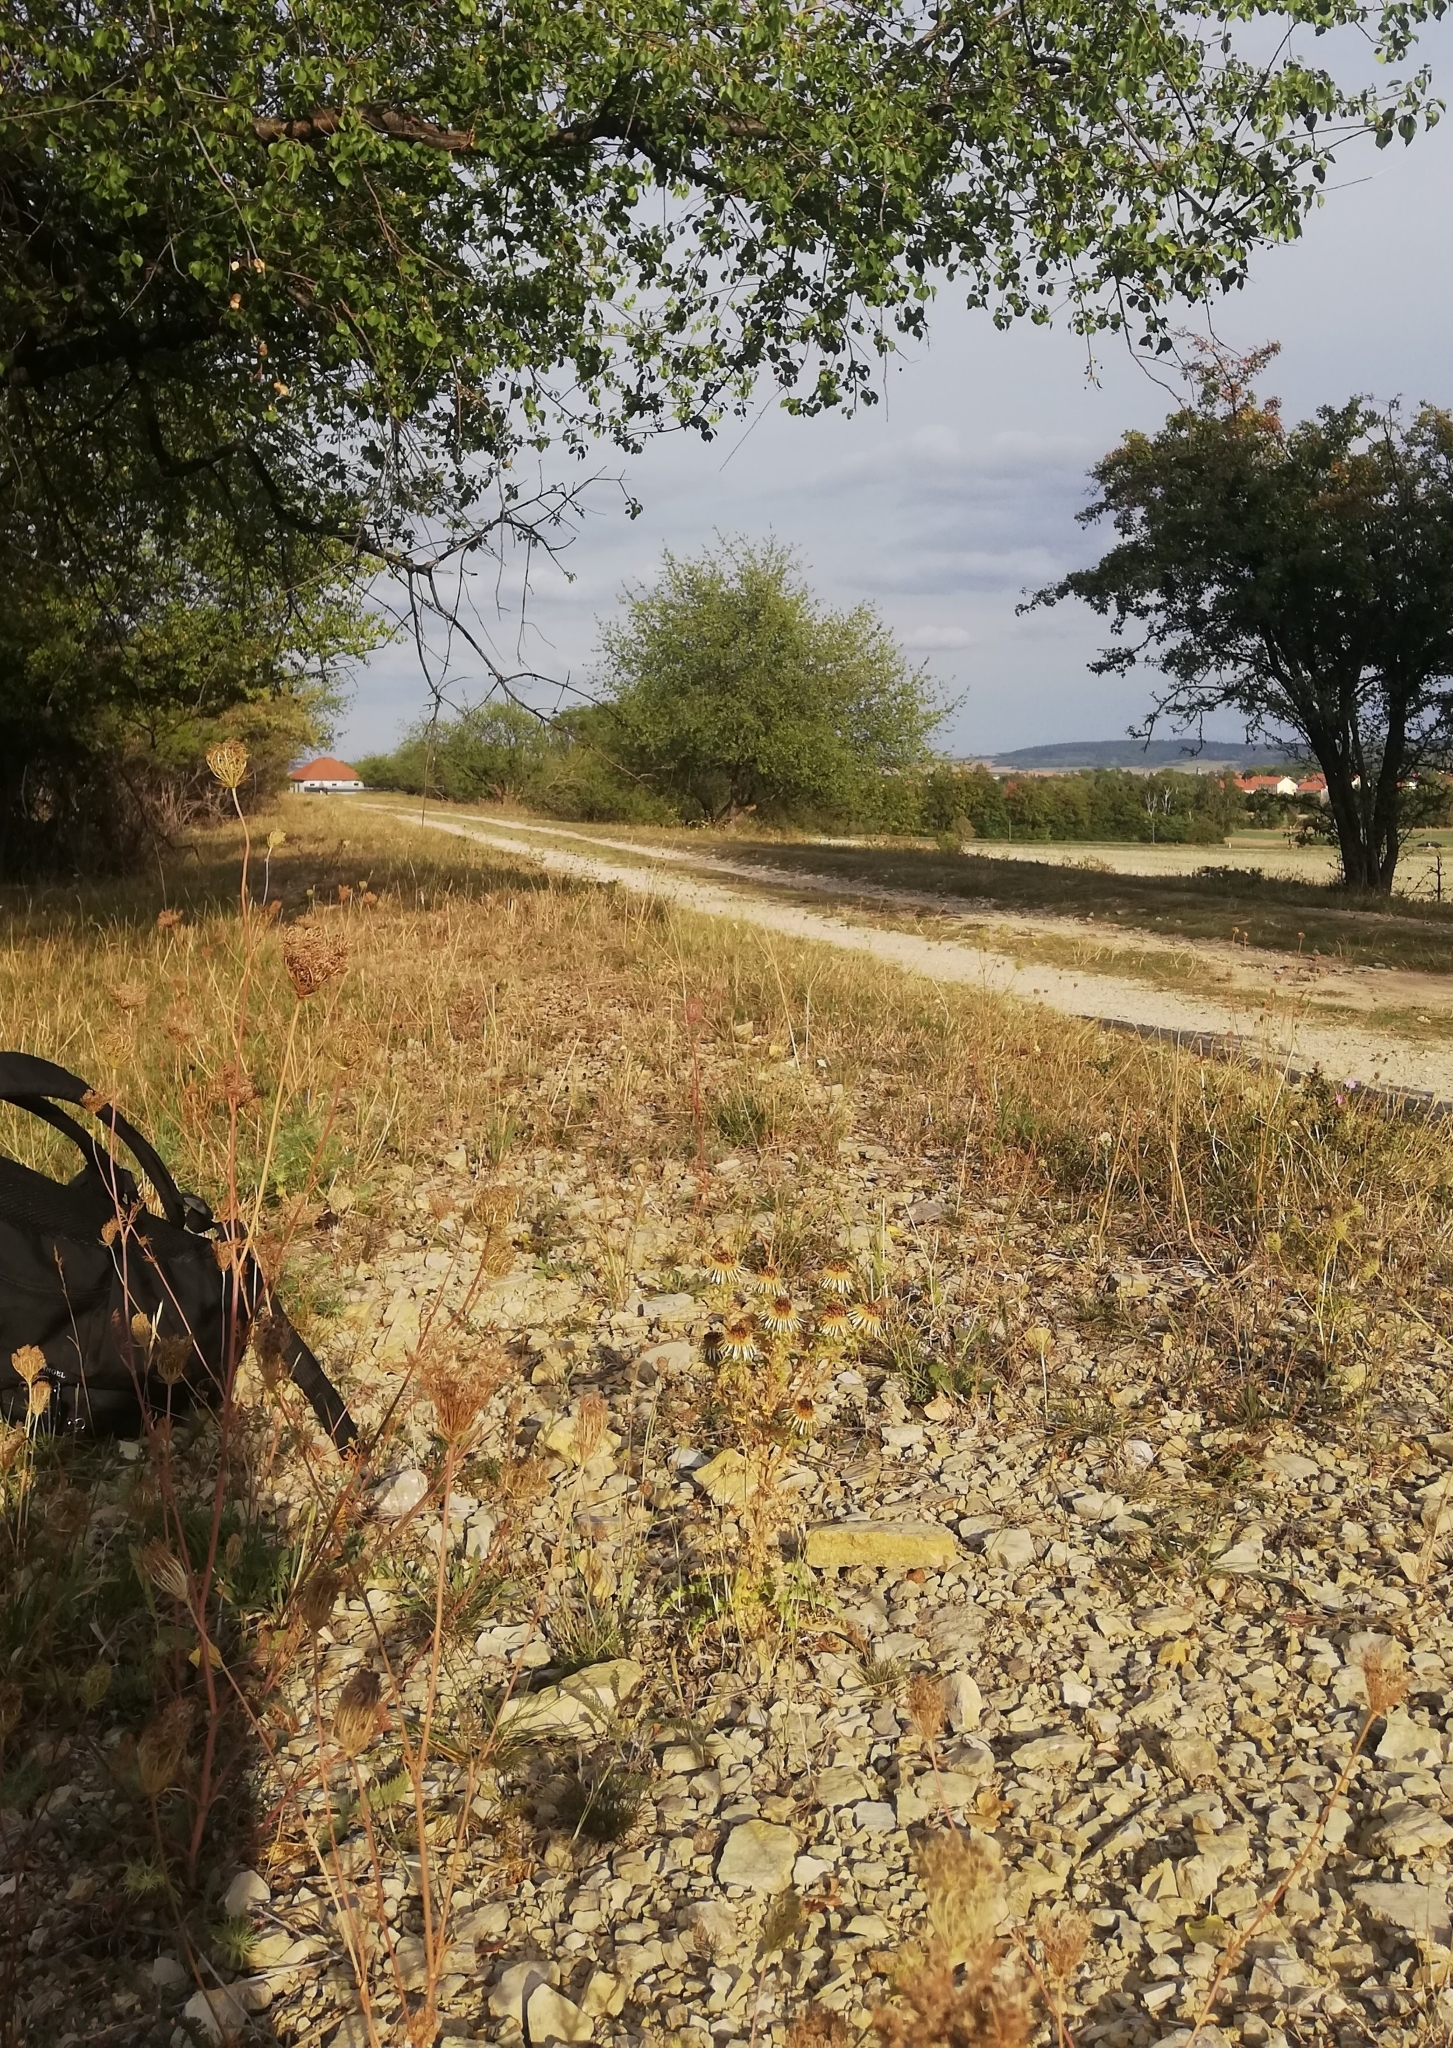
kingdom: Plantae
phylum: Tracheophyta
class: Magnoliopsida
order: Asterales
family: Asteraceae
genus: Carlina
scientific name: Carlina vulgaris
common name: Carline thistle
